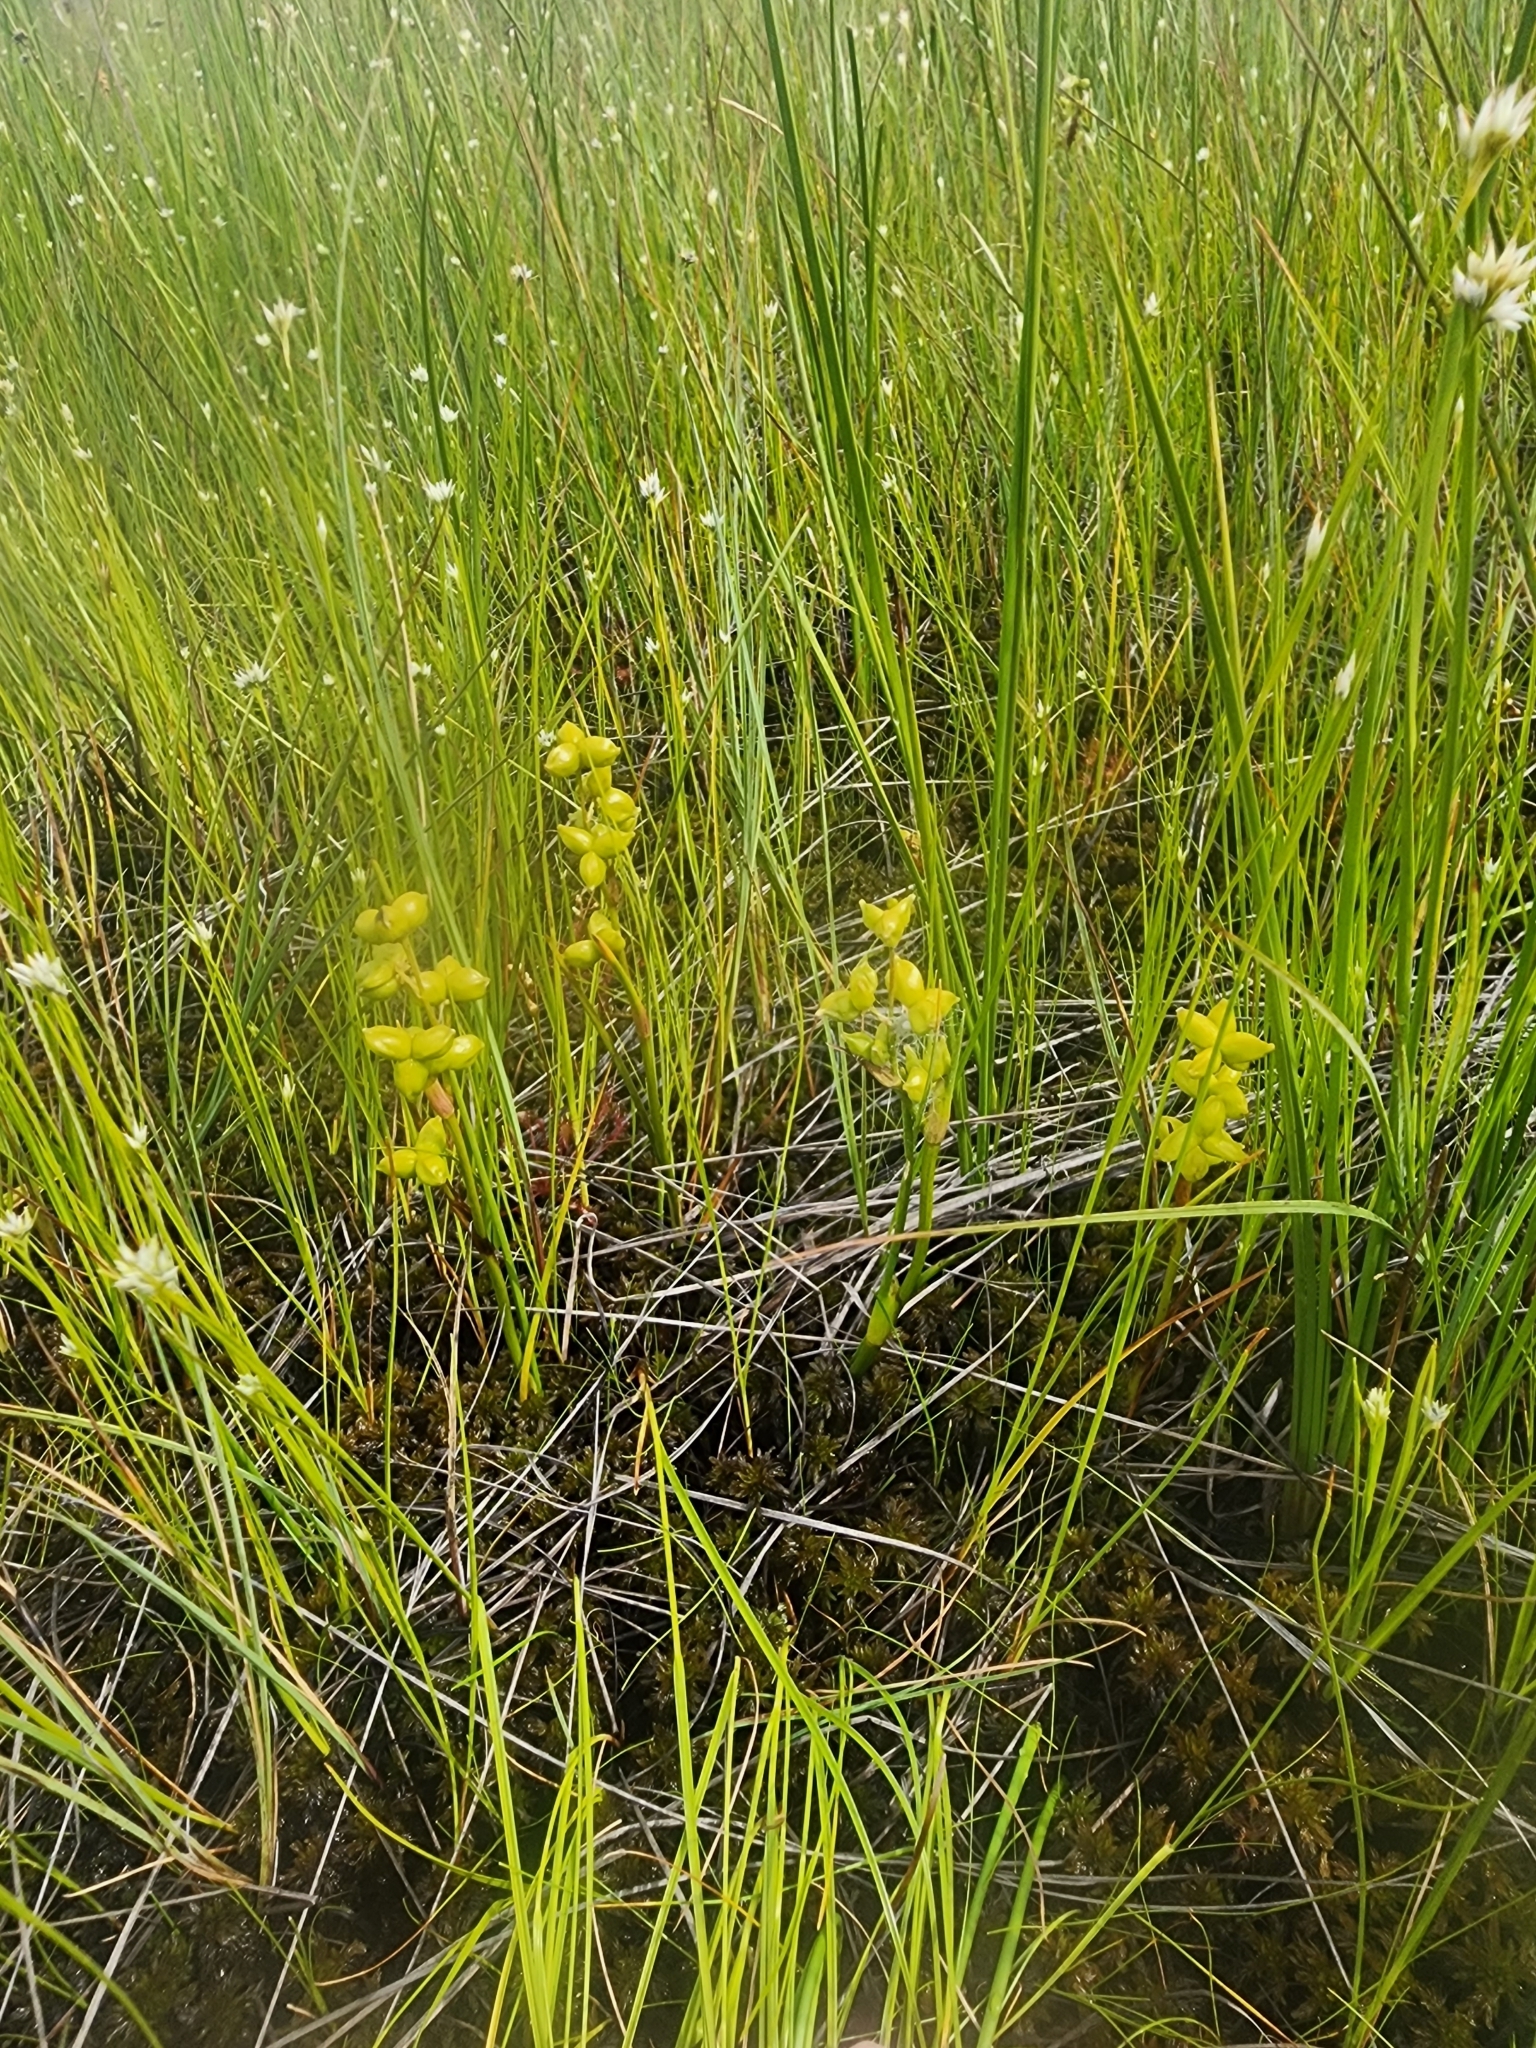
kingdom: Plantae
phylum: Tracheophyta
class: Liliopsida
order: Alismatales
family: Scheuchzeriaceae
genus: Scheuchzeria
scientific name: Scheuchzeria palustris
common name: Rannoch-rush
